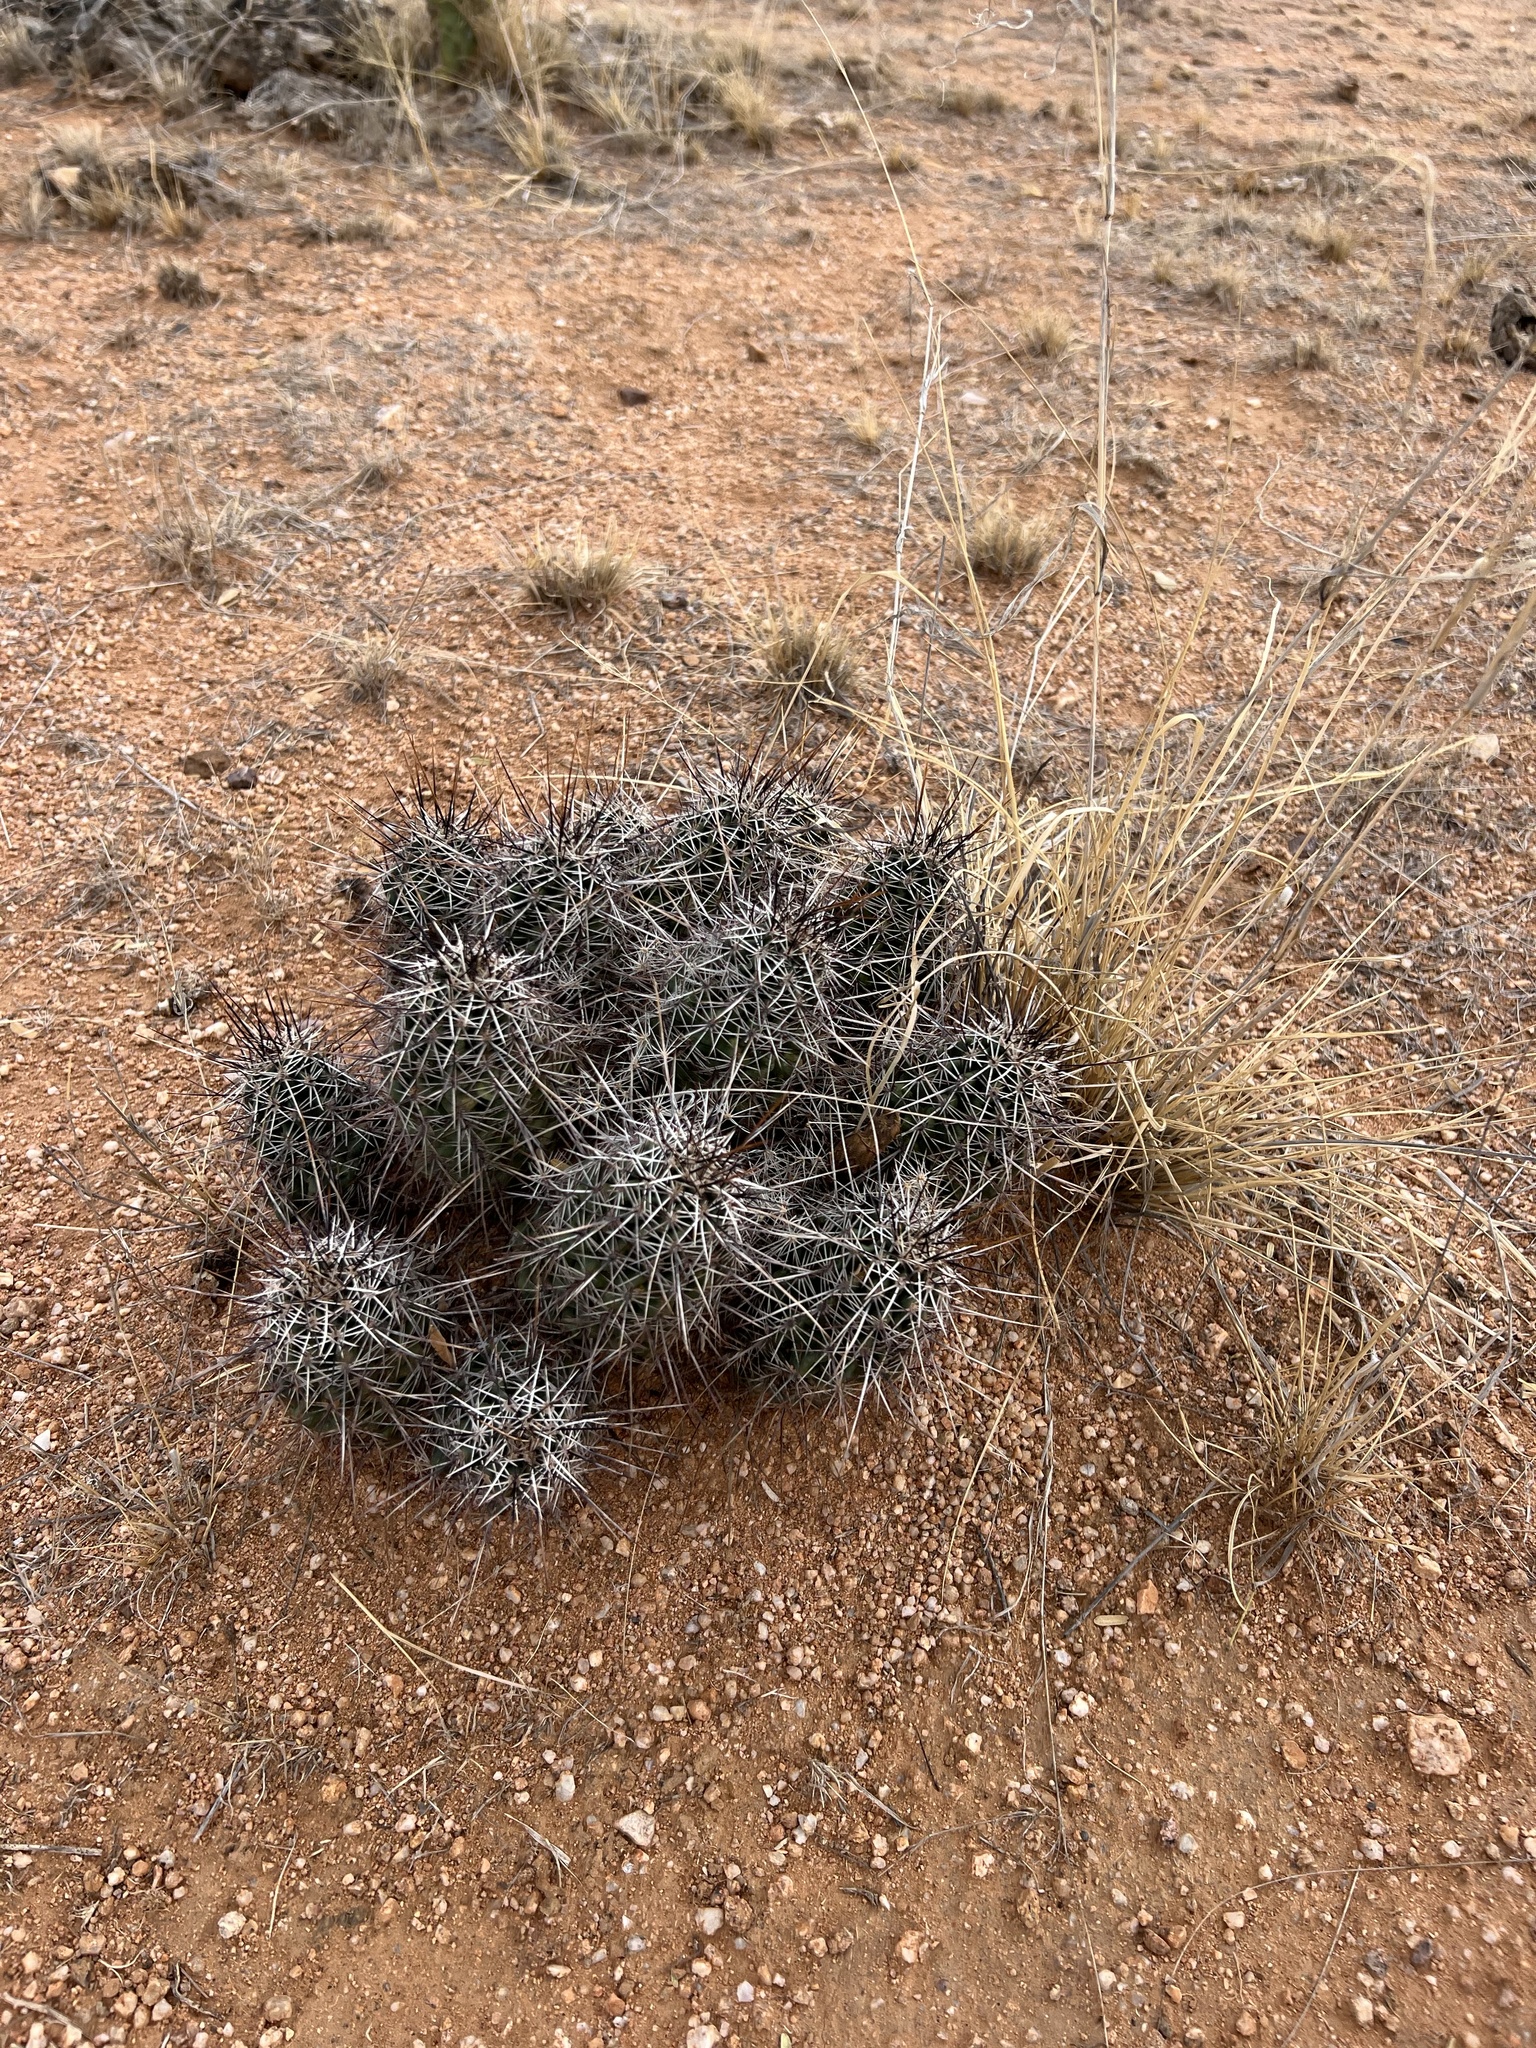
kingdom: Plantae
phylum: Tracheophyta
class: Magnoliopsida
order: Caryophyllales
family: Cactaceae
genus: Echinocereus
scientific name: Echinocereus fasciculatus
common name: Bundle hedgehog
